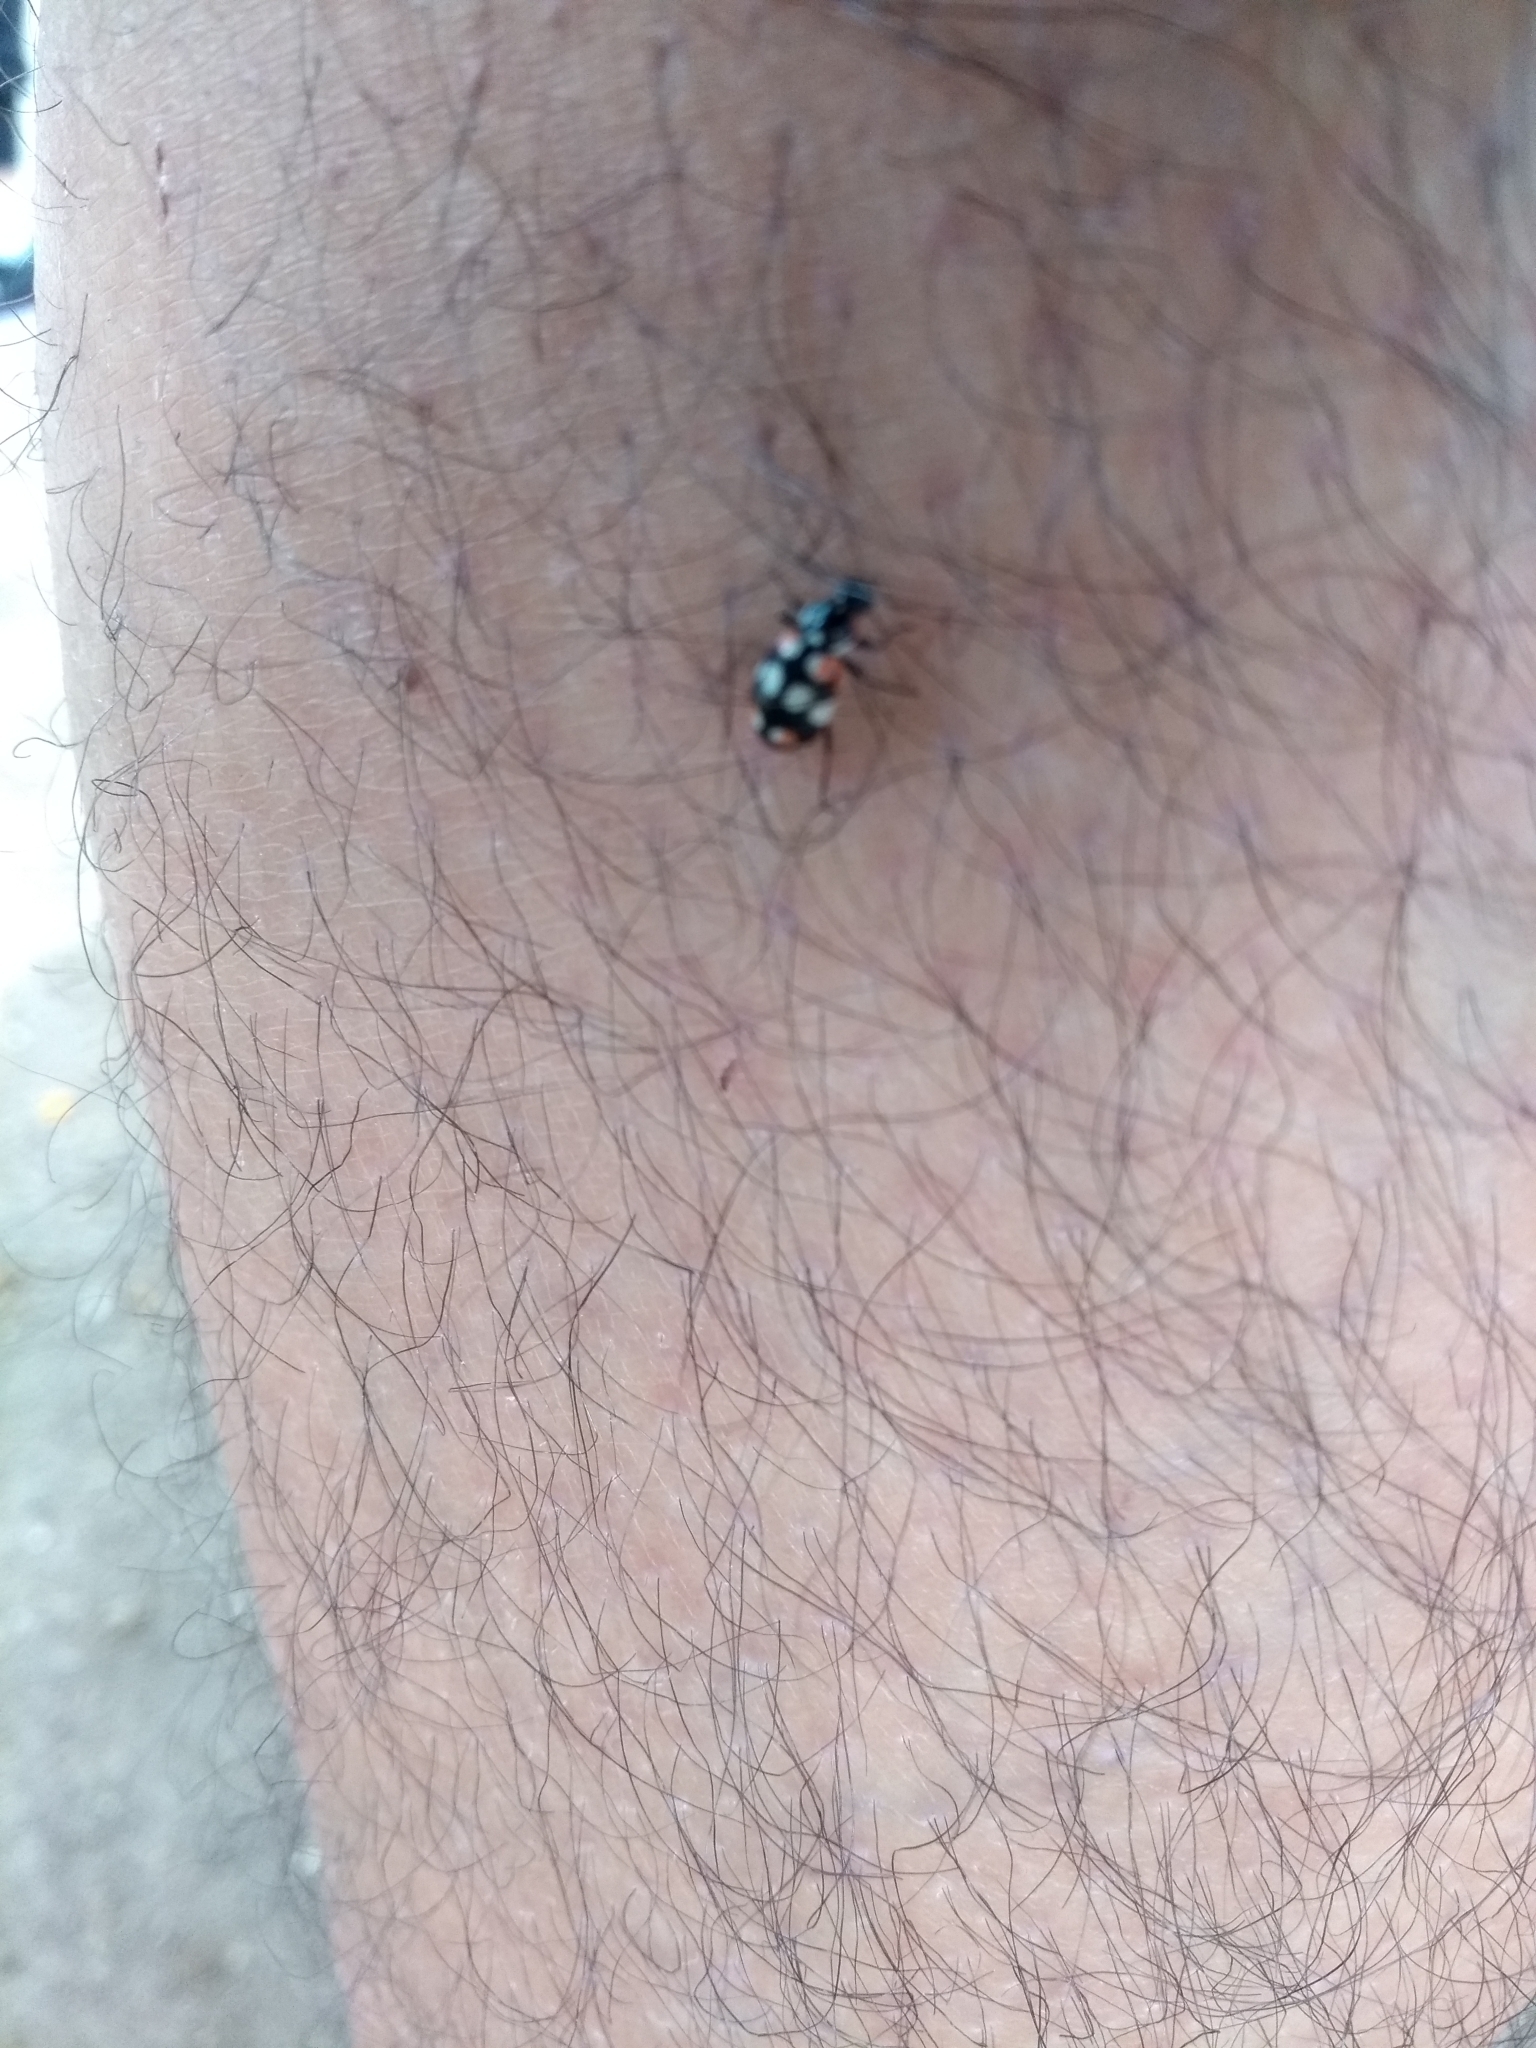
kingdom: Animalia
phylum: Arthropoda
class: Insecta
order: Coleoptera
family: Coccinellidae
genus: Eriopis
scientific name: Eriopis connexa
